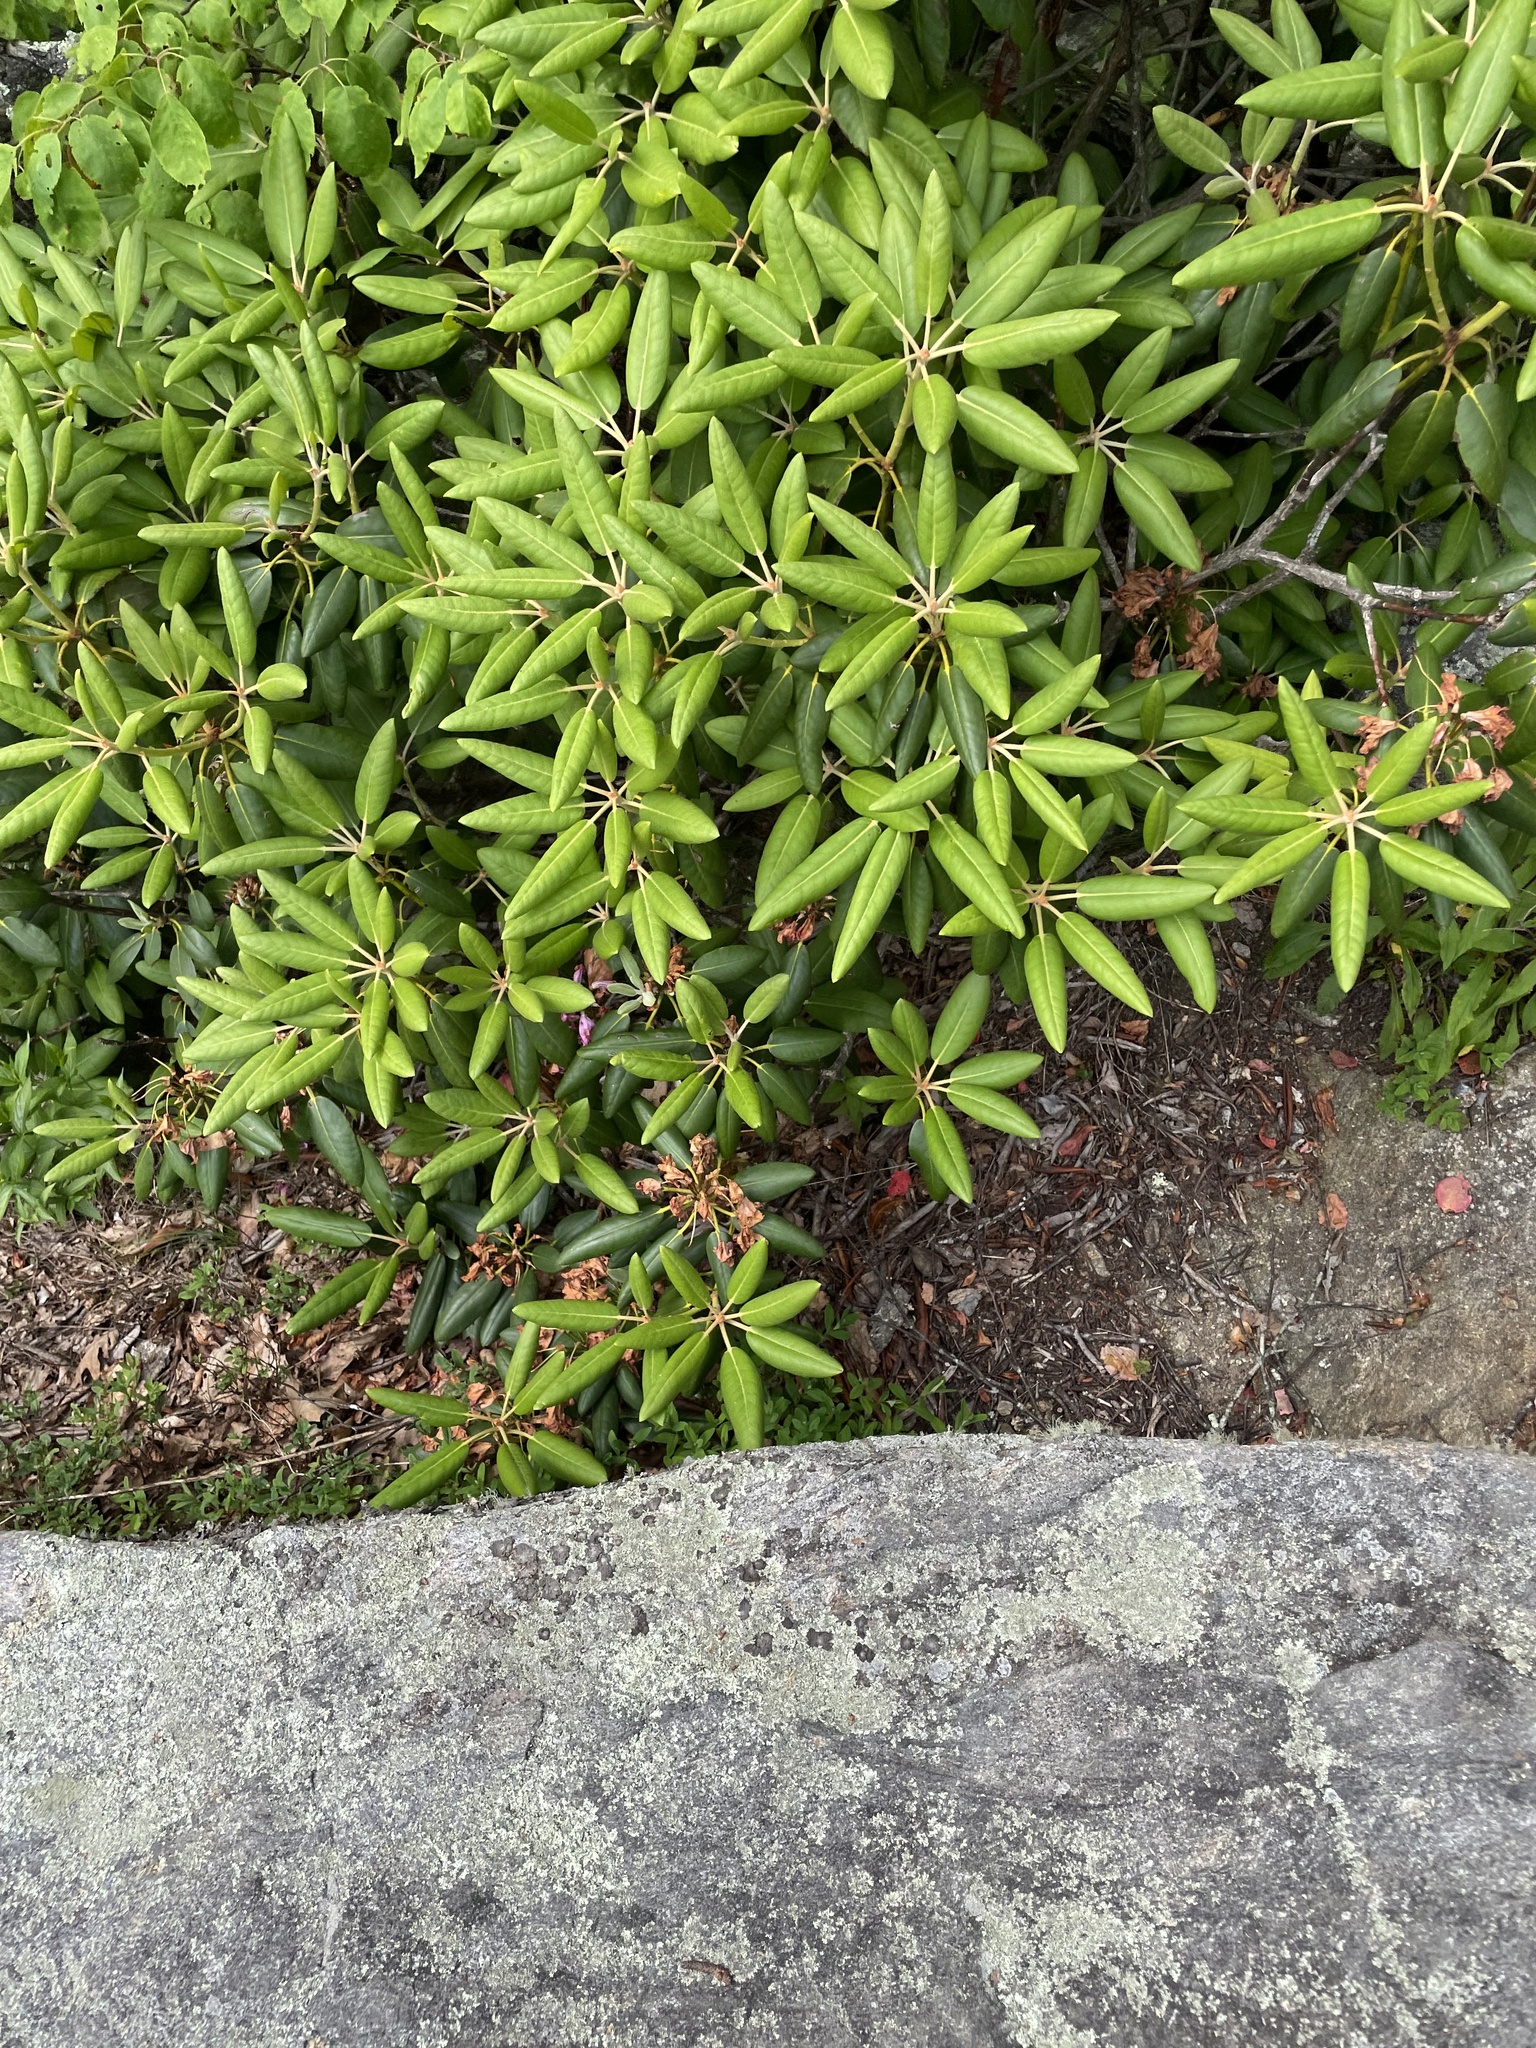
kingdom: Plantae
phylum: Tracheophyta
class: Magnoliopsida
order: Ericales
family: Ericaceae
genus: Rhododendron
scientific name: Rhododendron catawbiense
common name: Catawba rhododendron
